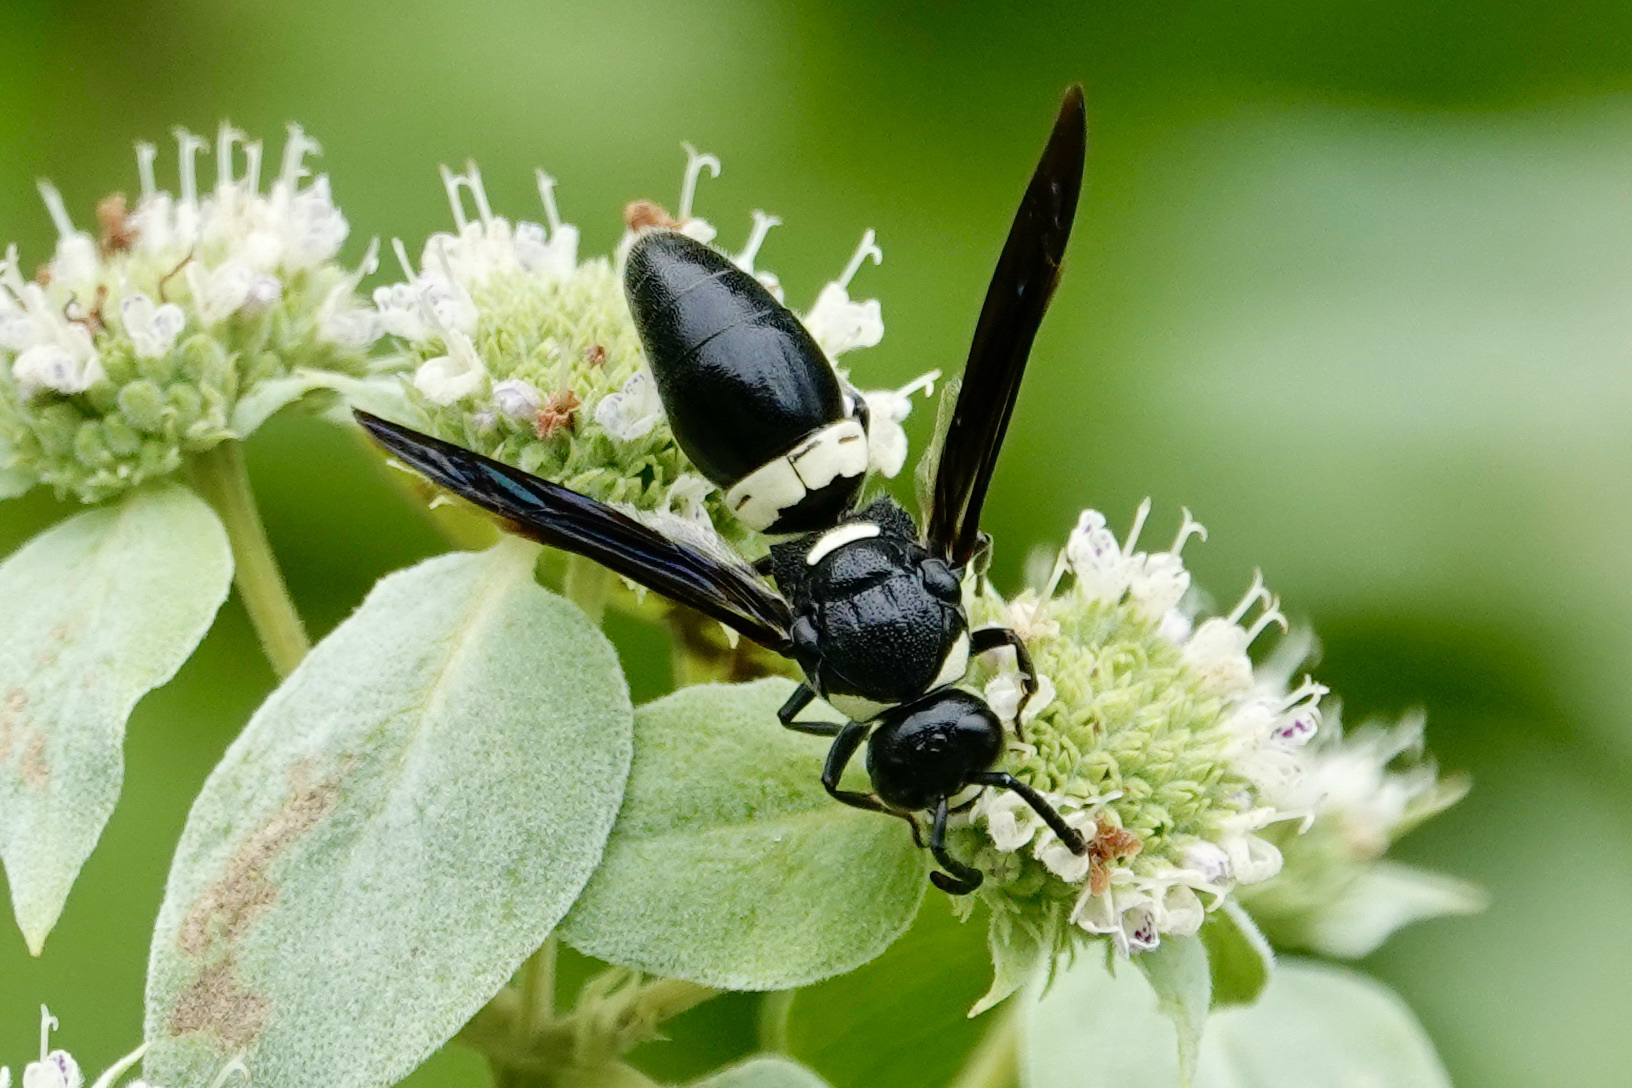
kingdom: Animalia
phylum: Arthropoda
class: Insecta
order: Hymenoptera
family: Eumenidae
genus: Monobia
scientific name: Monobia quadridens
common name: Four-toothed mason wasp
